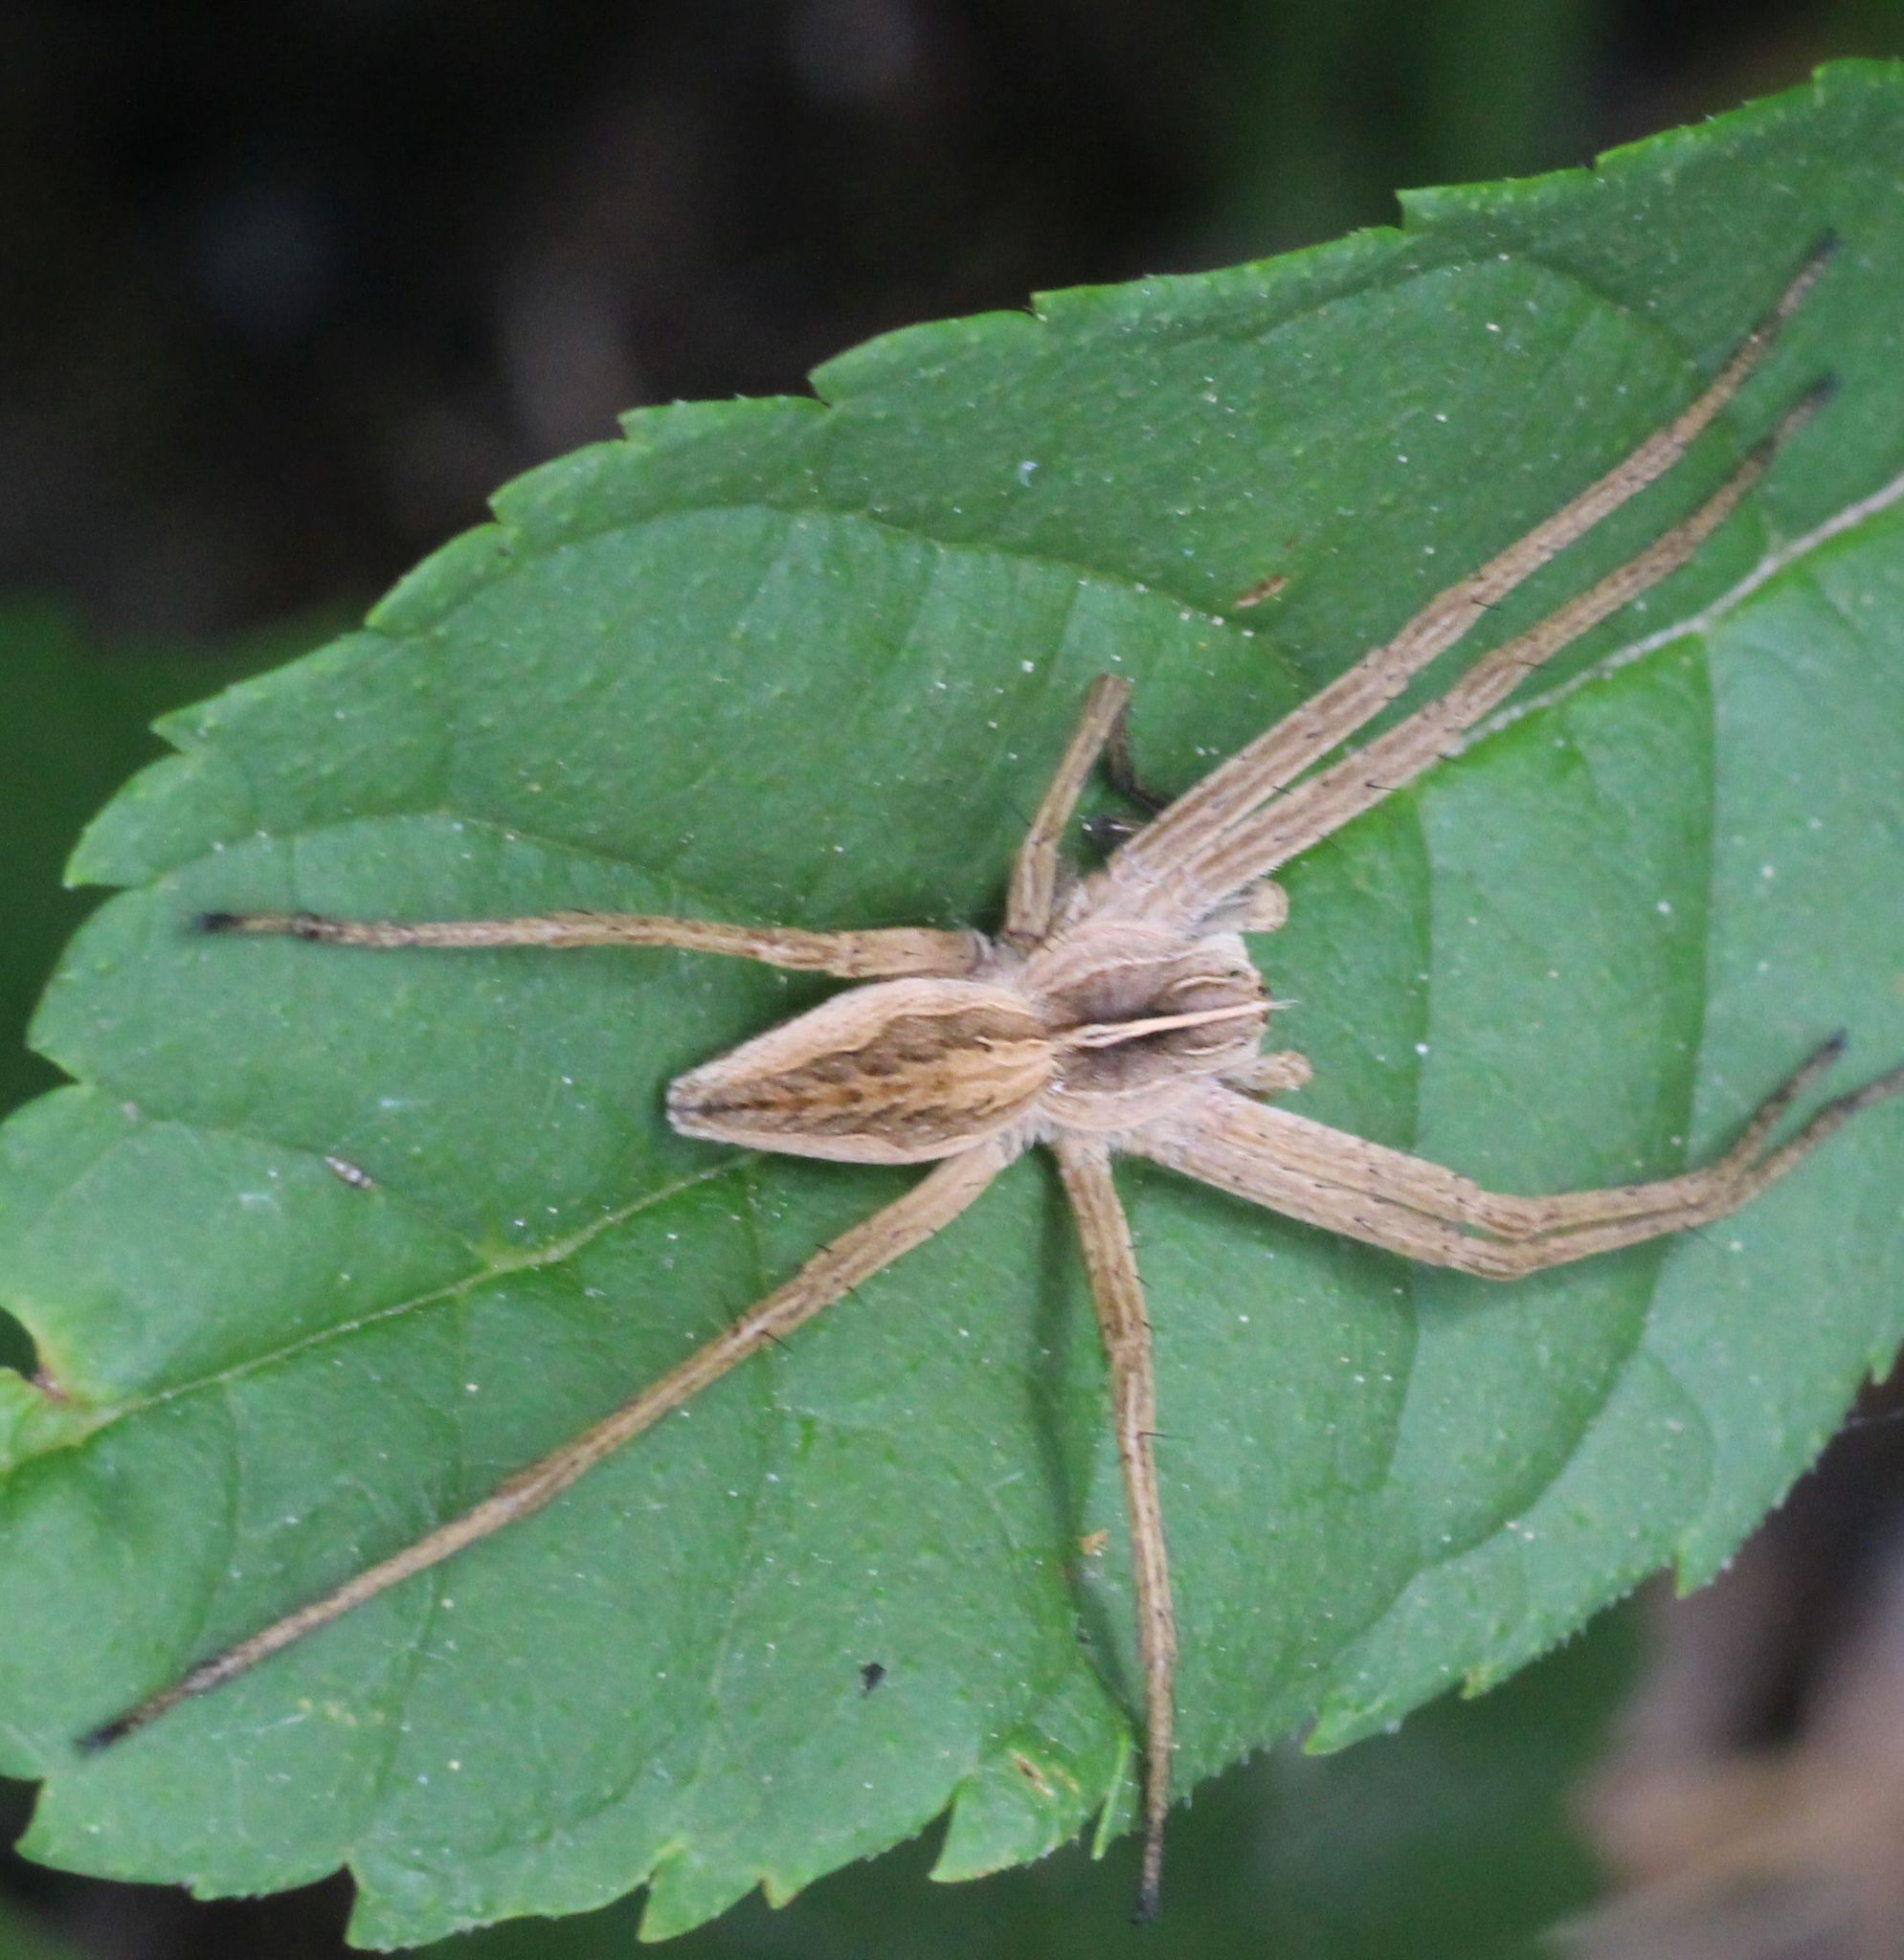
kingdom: Animalia
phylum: Arthropoda
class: Arachnida
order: Araneae
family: Pisauridae
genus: Pisaura
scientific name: Pisaura mirabilis
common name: Tent spider
